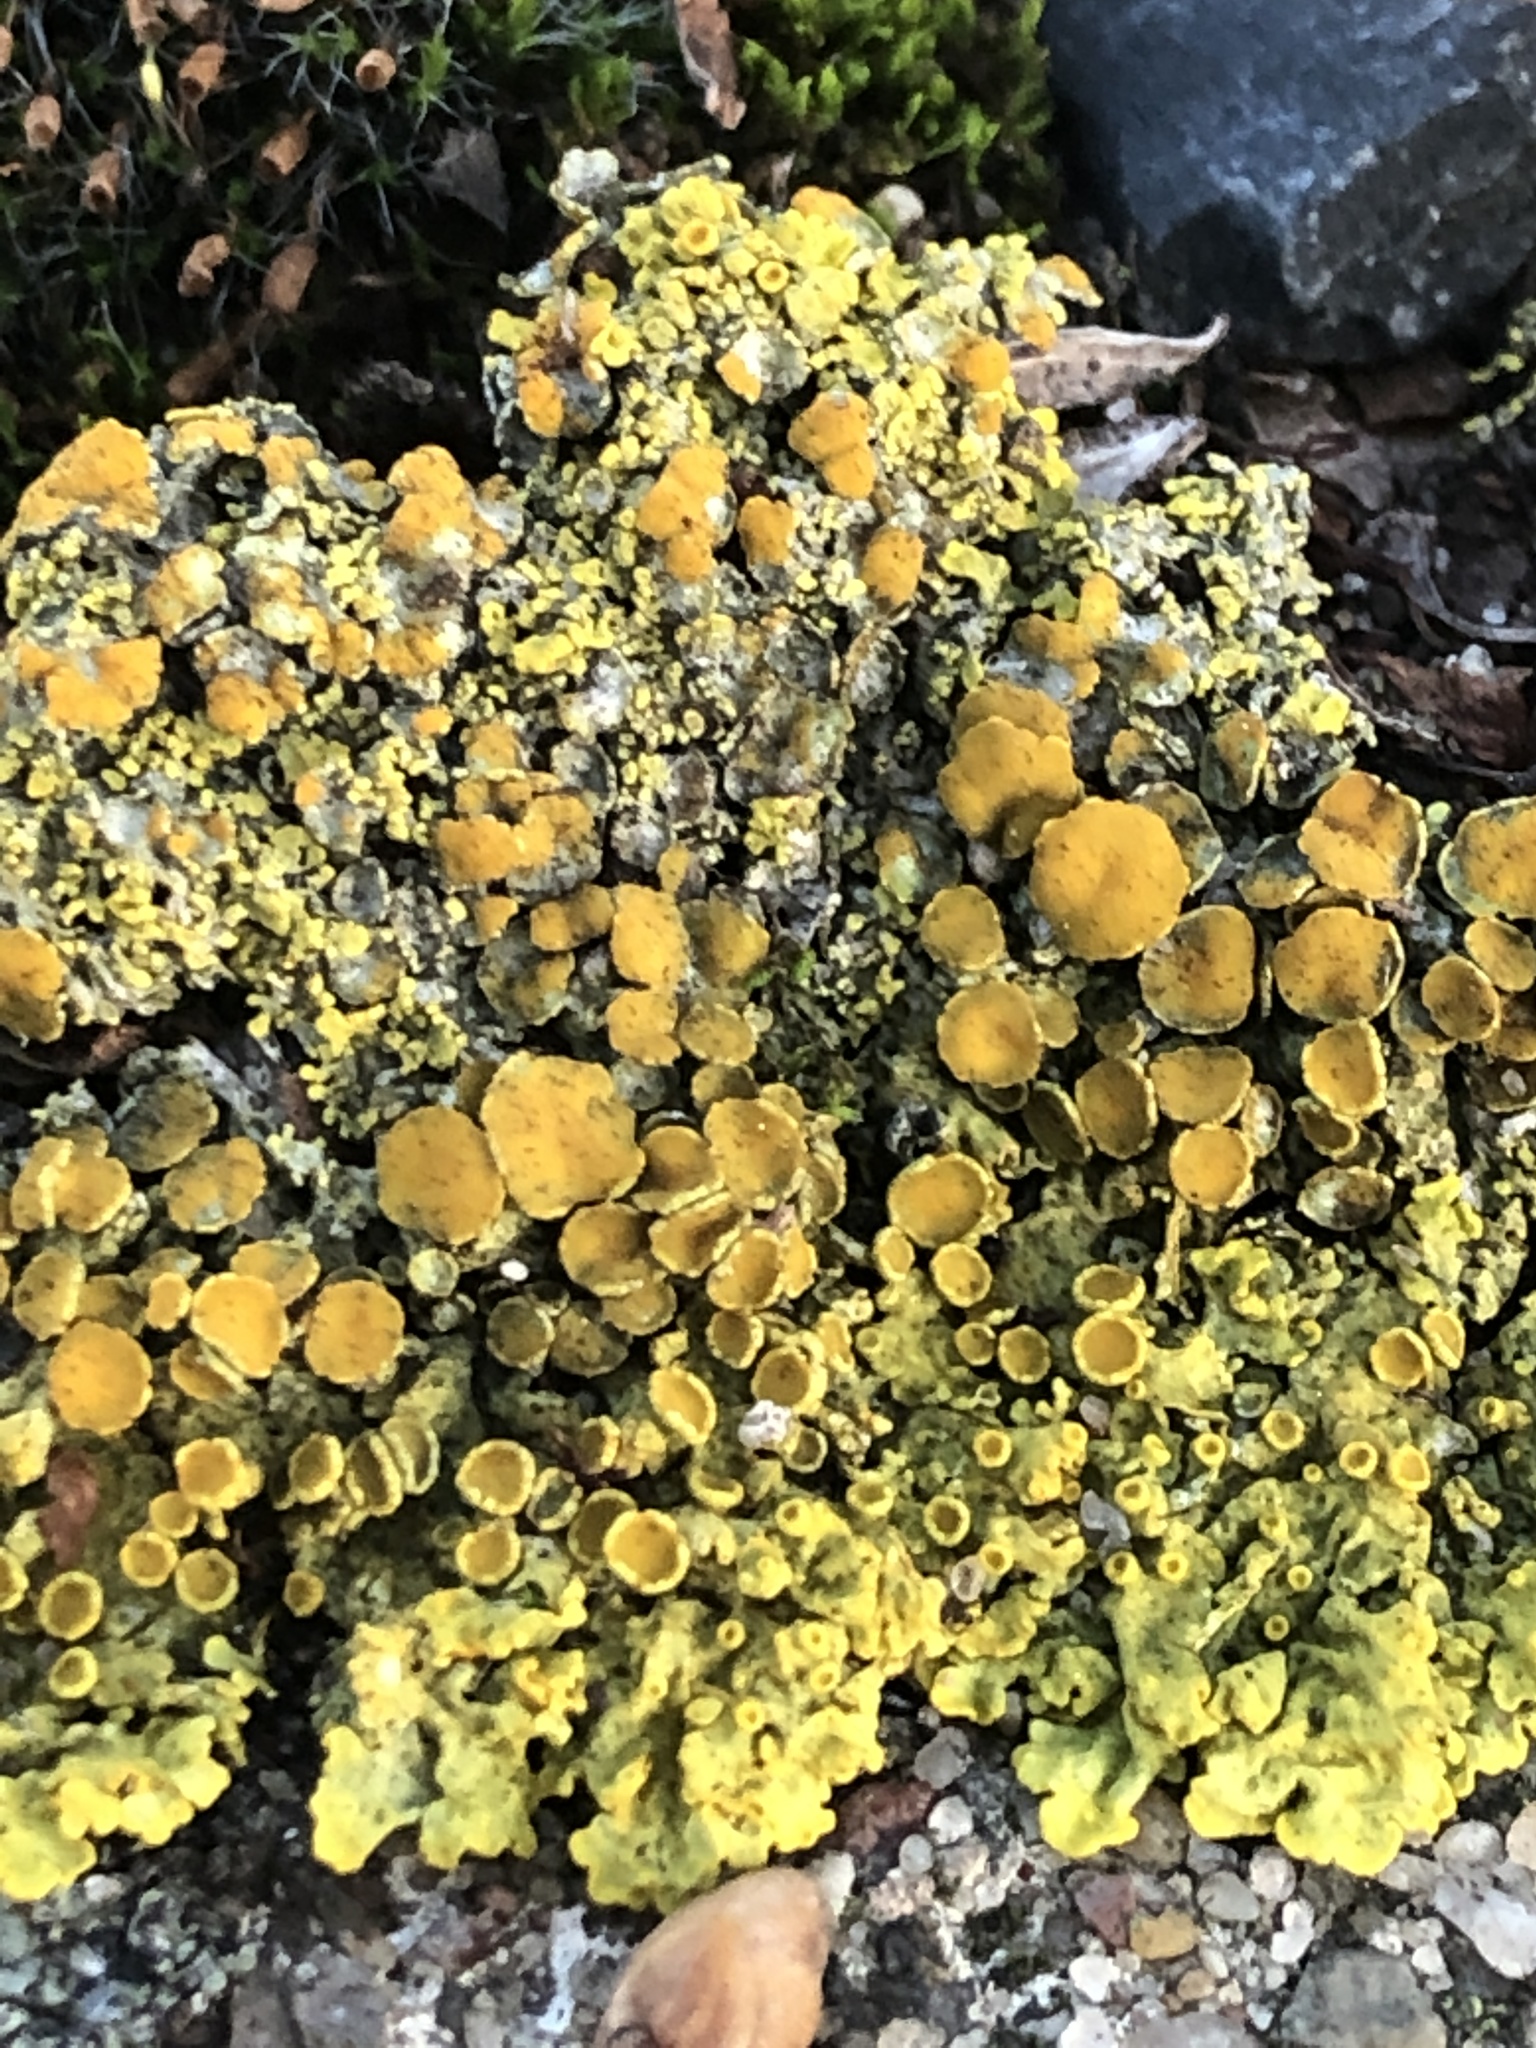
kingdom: Fungi
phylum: Ascomycota
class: Lecanoromycetes
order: Teloschistales
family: Teloschistaceae
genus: Xanthoria
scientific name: Xanthoria parietina
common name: Common orange lichen
